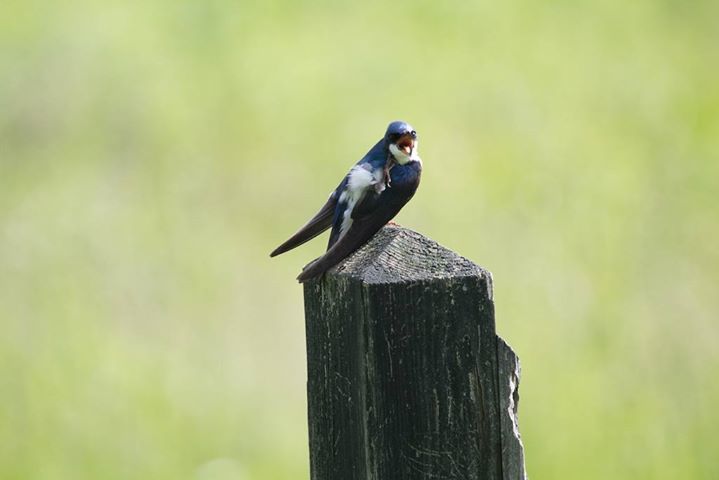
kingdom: Animalia
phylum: Chordata
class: Aves
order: Passeriformes
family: Hirundinidae
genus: Tachycineta
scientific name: Tachycineta bicolor
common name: Tree swallow
